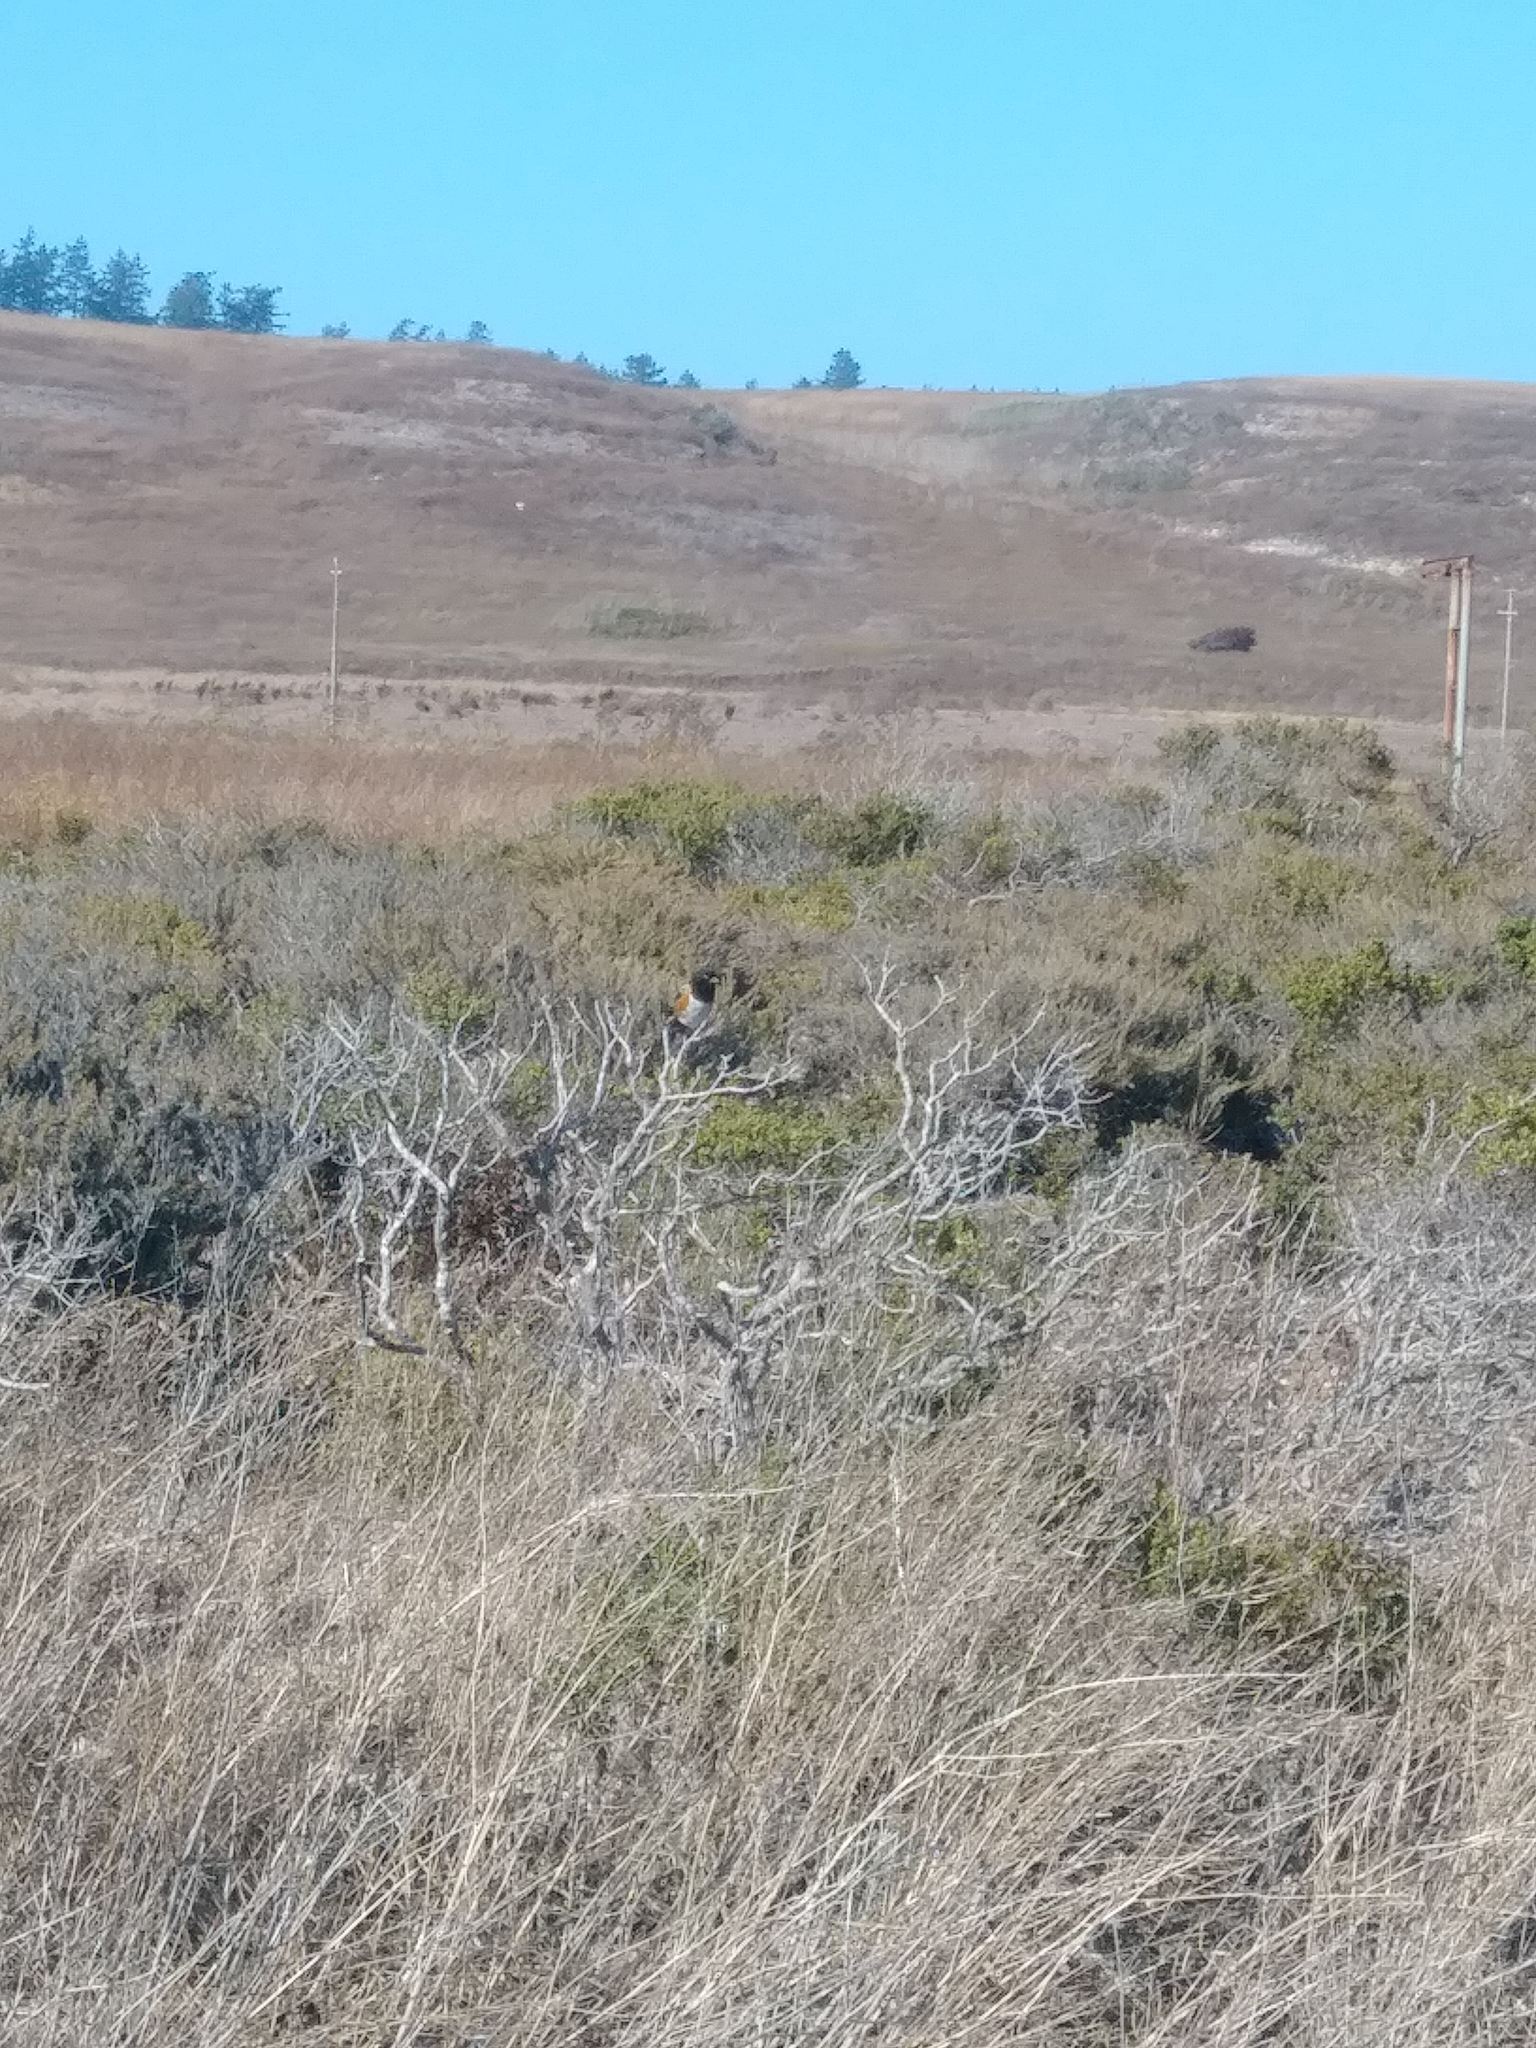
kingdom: Animalia
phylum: Chordata
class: Aves
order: Passeriformes
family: Passerellidae
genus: Pipilo
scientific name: Pipilo maculatus
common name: Spotted towhee
